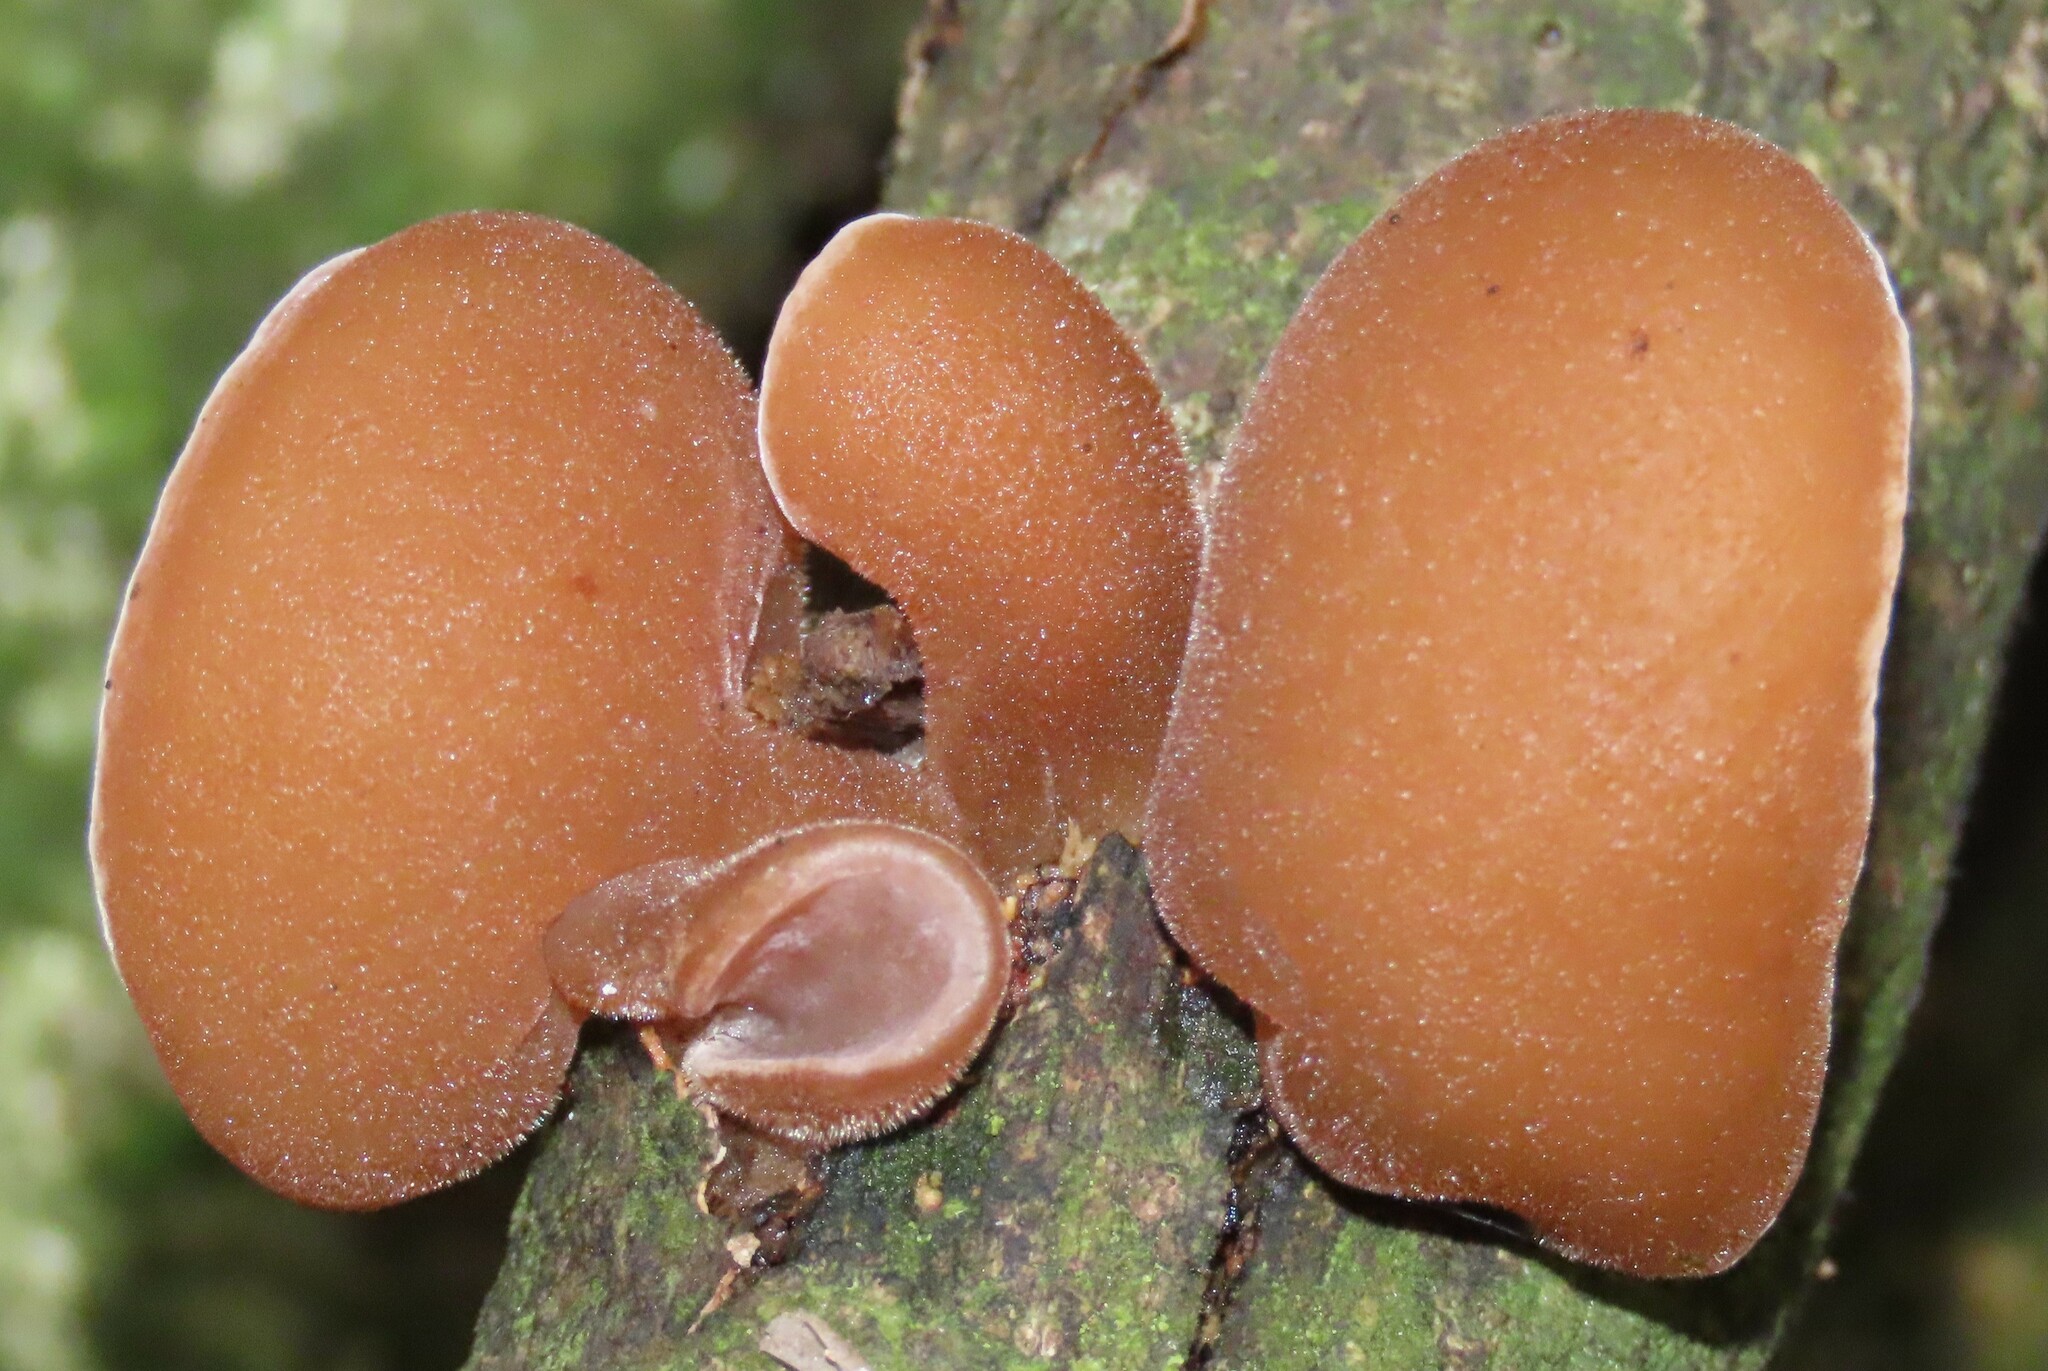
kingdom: Fungi
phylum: Basidiomycota
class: Agaricomycetes
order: Auriculariales
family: Auriculariaceae
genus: Auricularia
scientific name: Auricularia cornea
